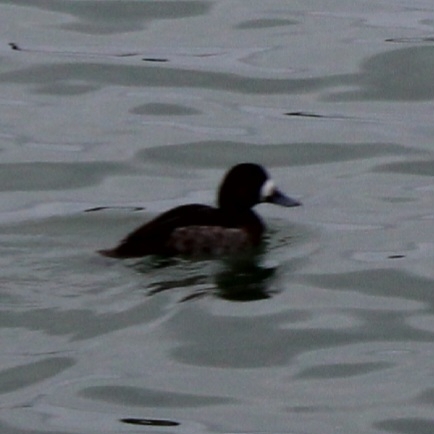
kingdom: Animalia
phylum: Chordata
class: Aves
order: Anseriformes
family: Anatidae
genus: Aythya
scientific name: Aythya marila
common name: Greater scaup
